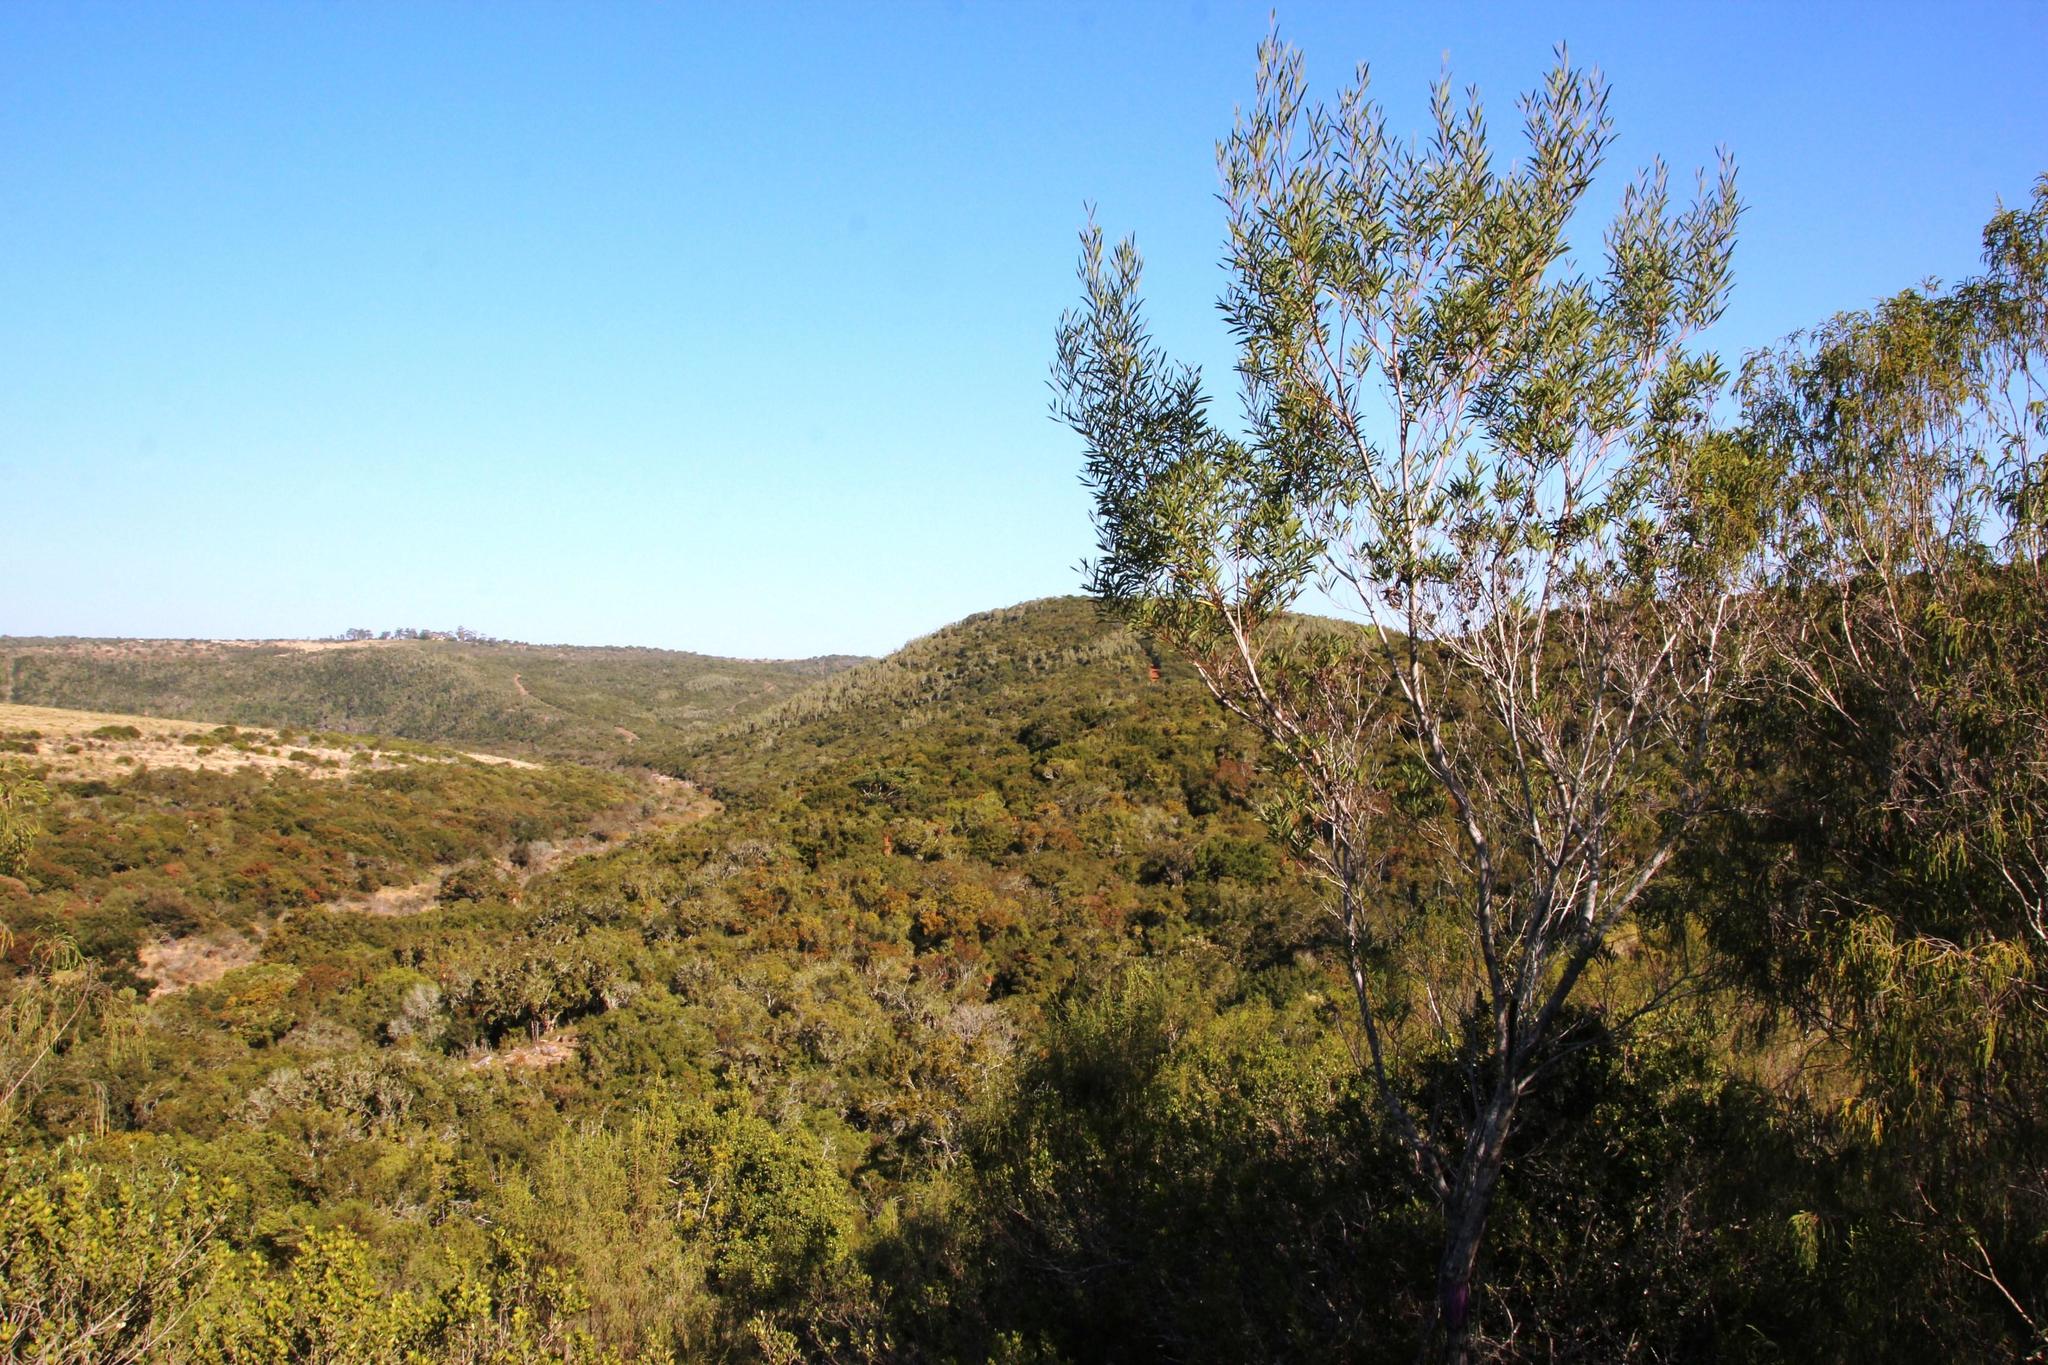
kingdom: Plantae
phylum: Tracheophyta
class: Magnoliopsida
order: Fabales
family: Fabaceae
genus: Acacia
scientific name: Acacia cyclops
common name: Coastal wattle
